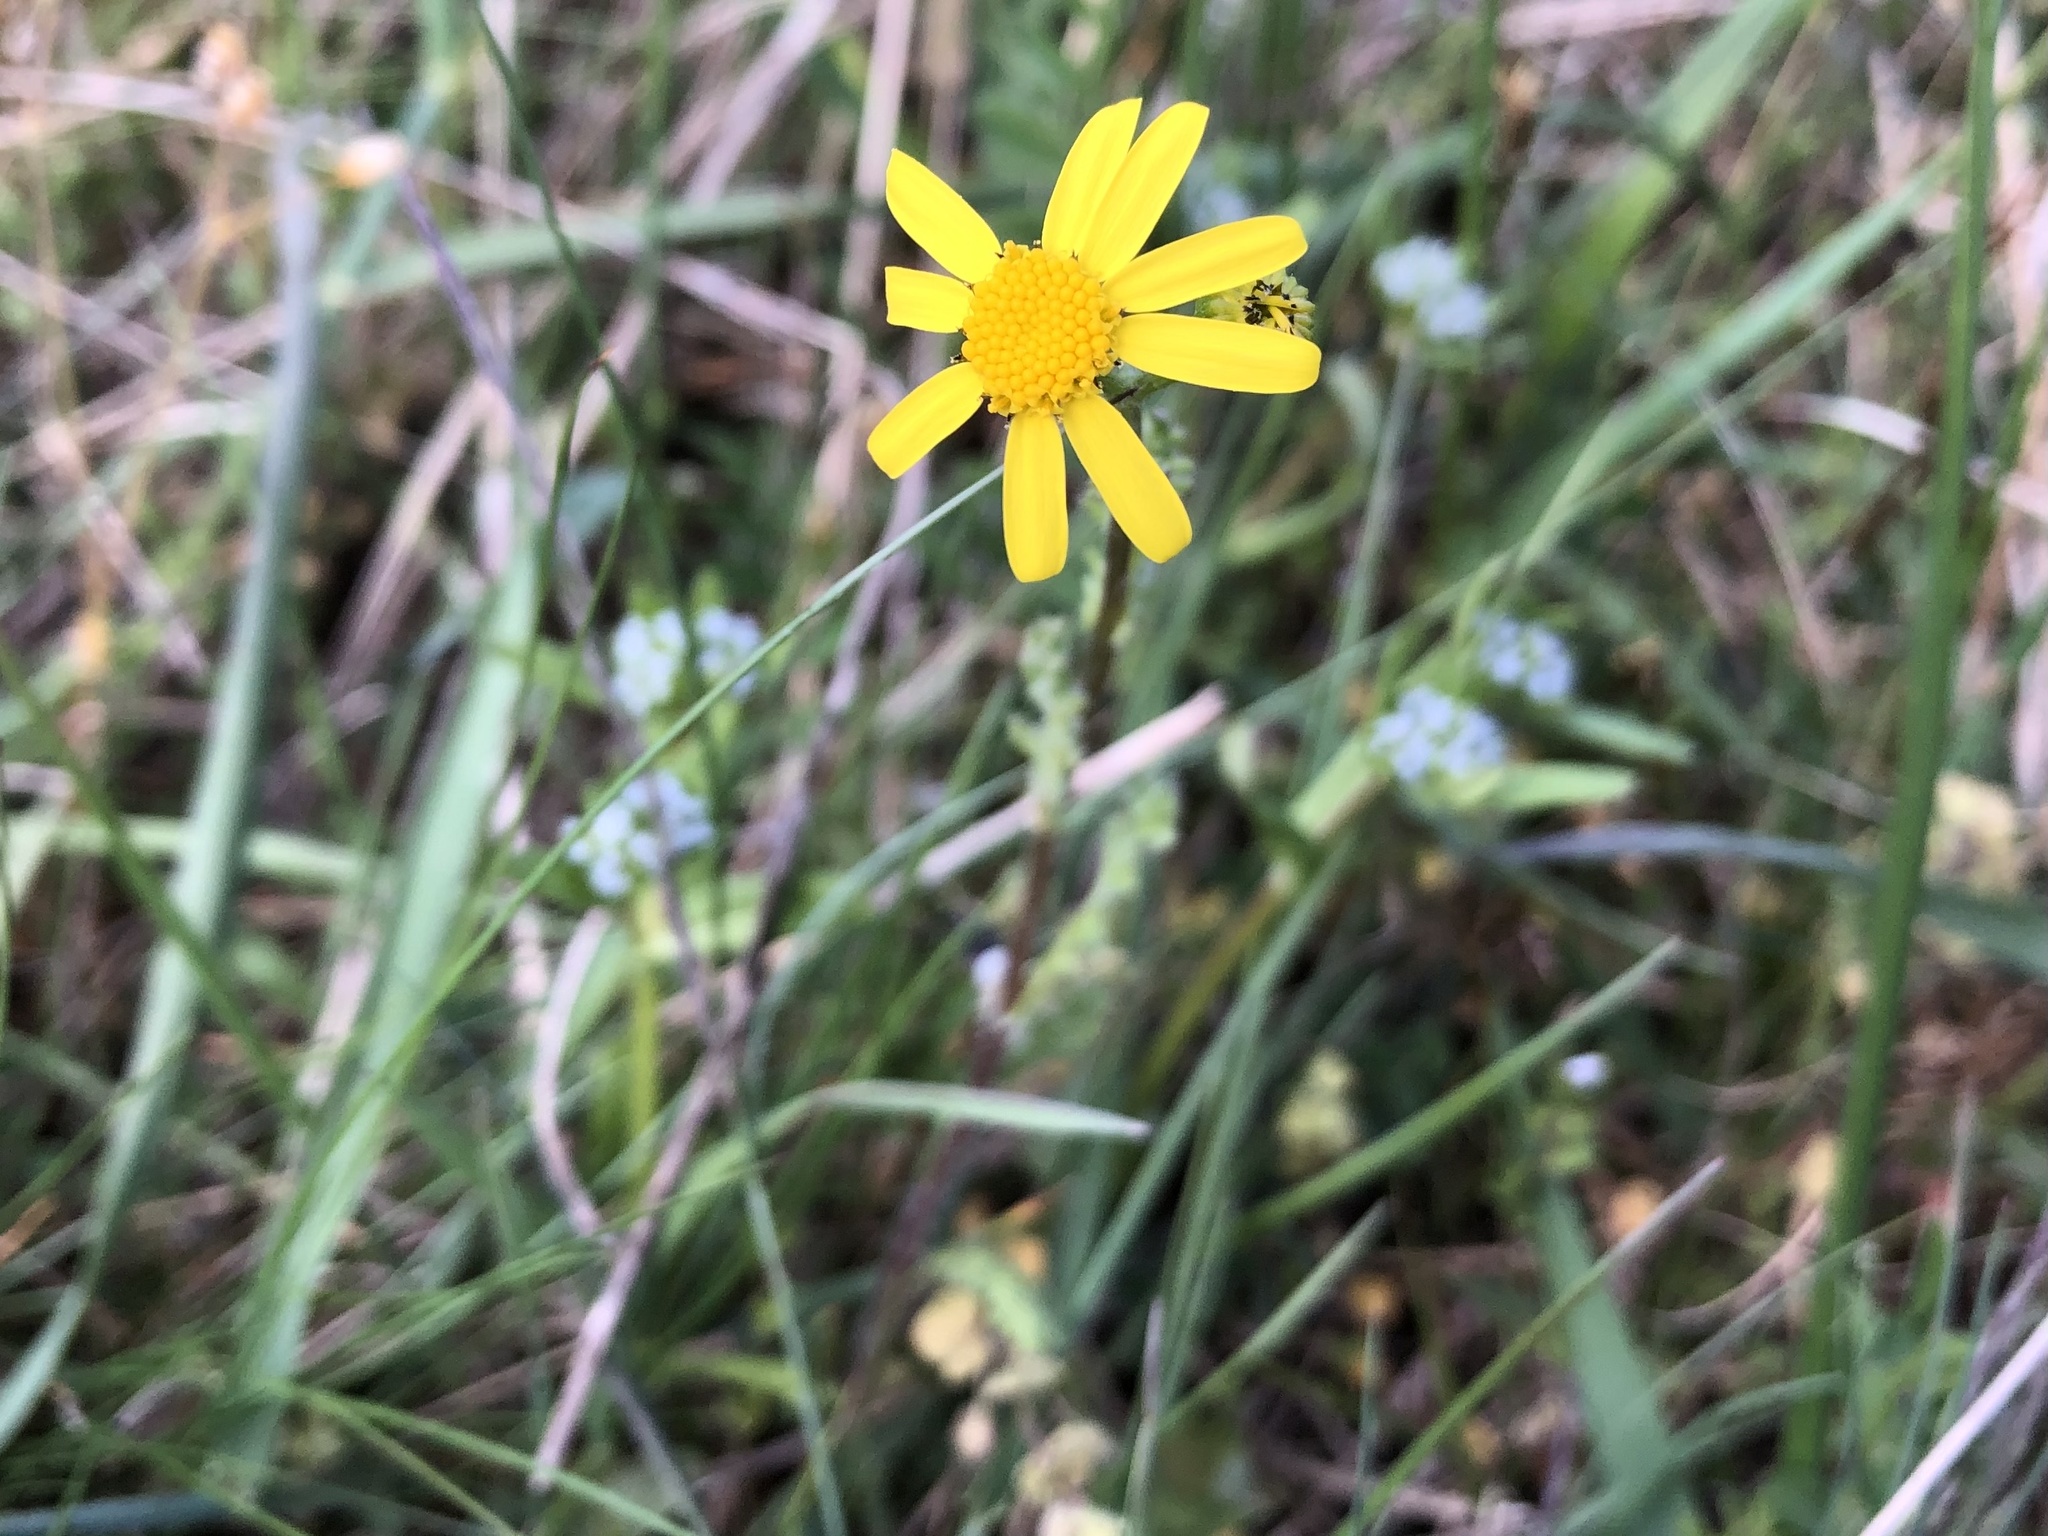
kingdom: Plantae
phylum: Tracheophyta
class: Magnoliopsida
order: Asterales
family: Asteraceae
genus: Senecio
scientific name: Senecio vernalis
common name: Eastern groundsel
